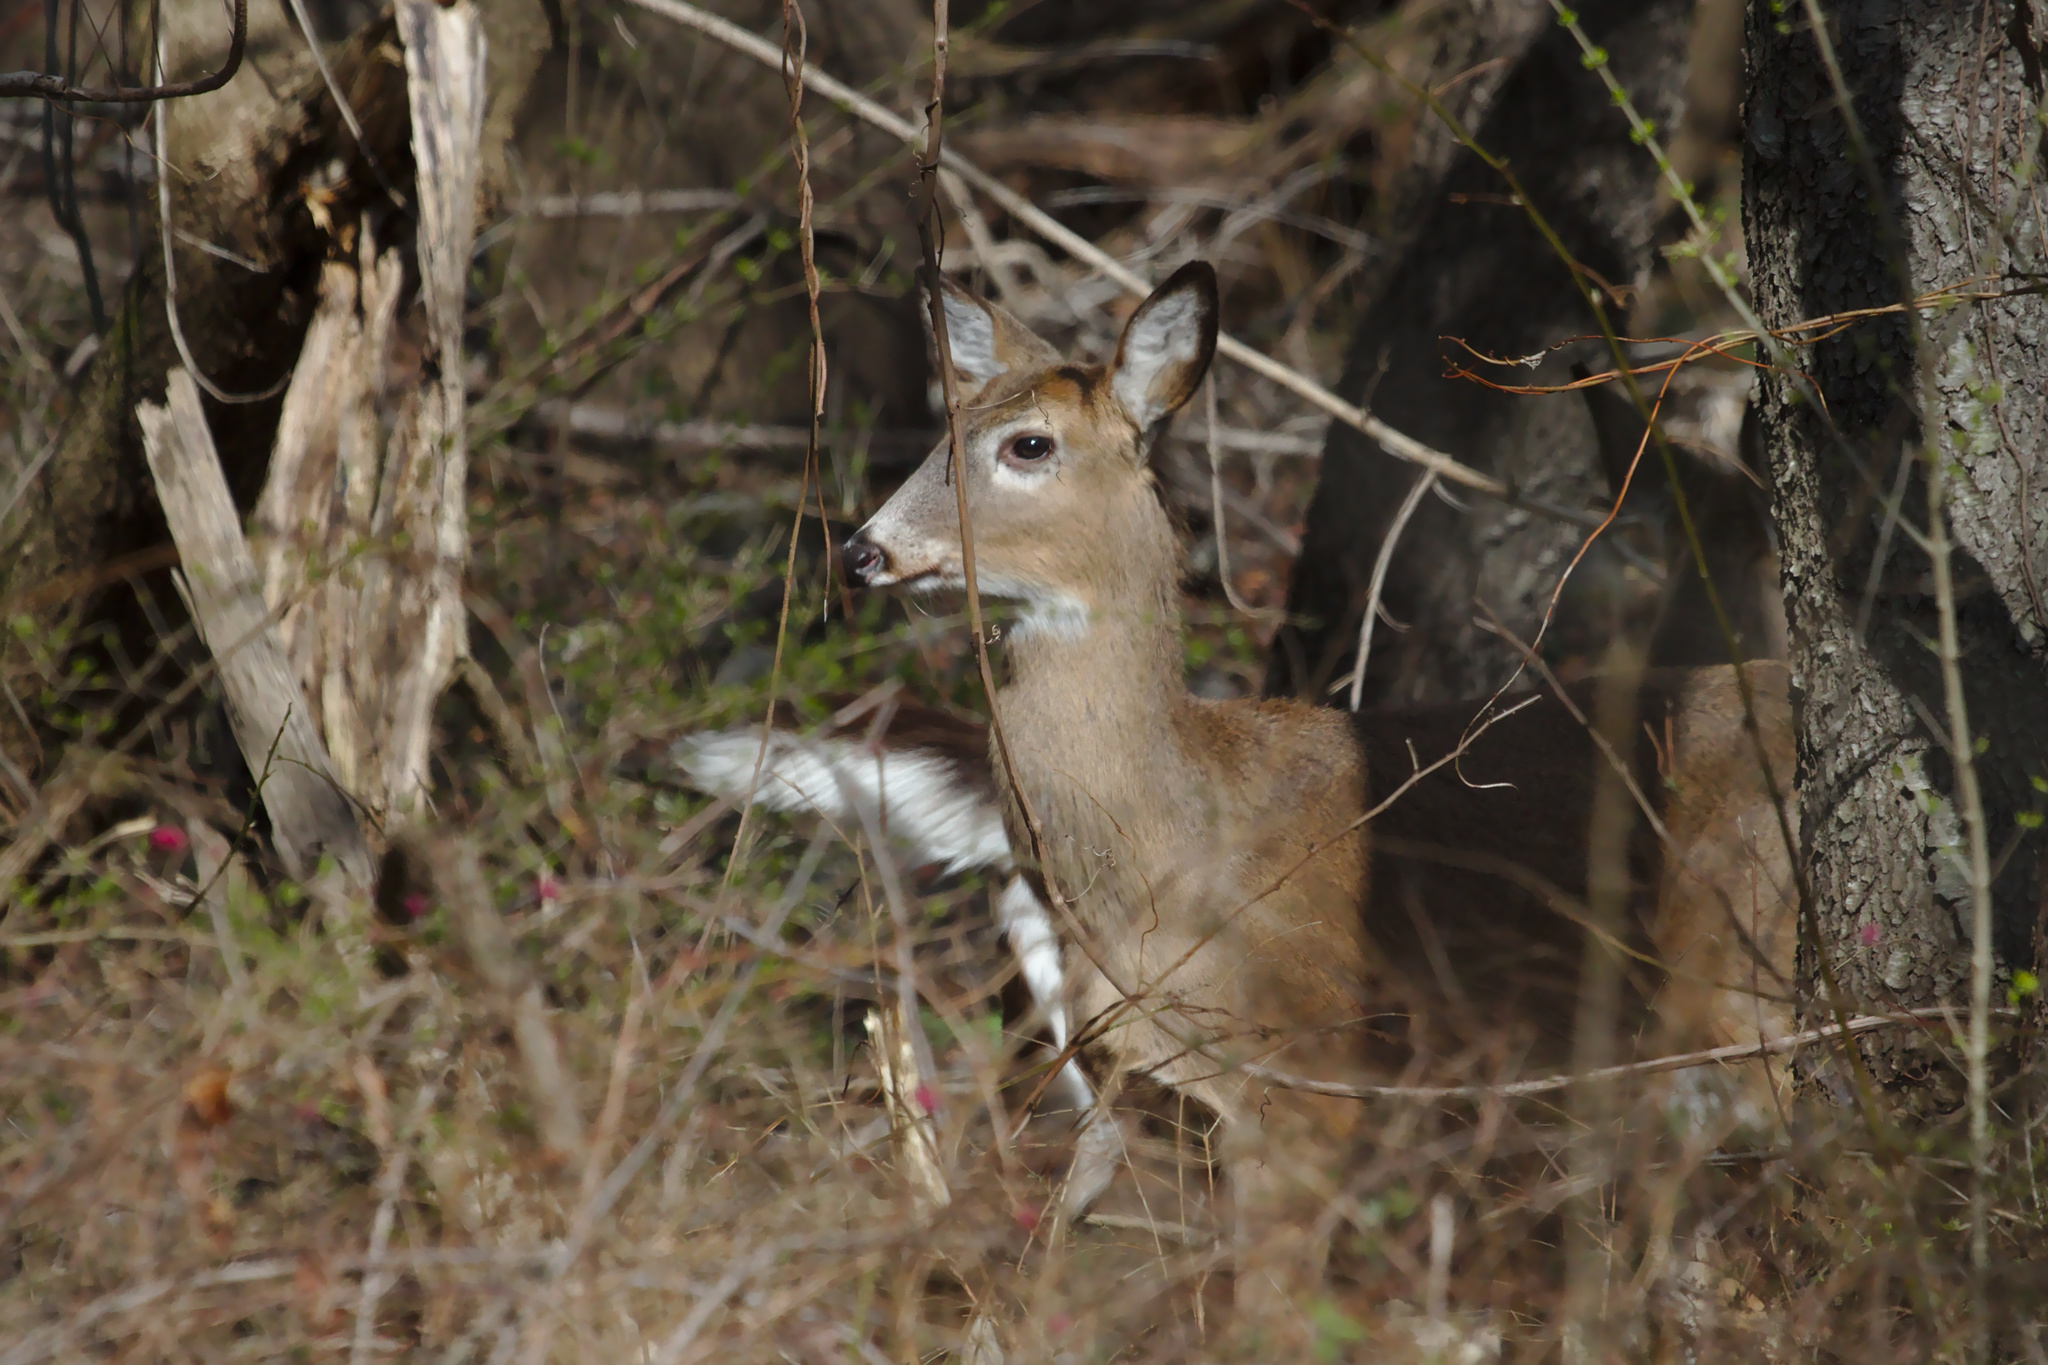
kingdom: Animalia
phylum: Chordata
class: Mammalia
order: Artiodactyla
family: Cervidae
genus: Odocoileus
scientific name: Odocoileus virginianus
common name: White-tailed deer
